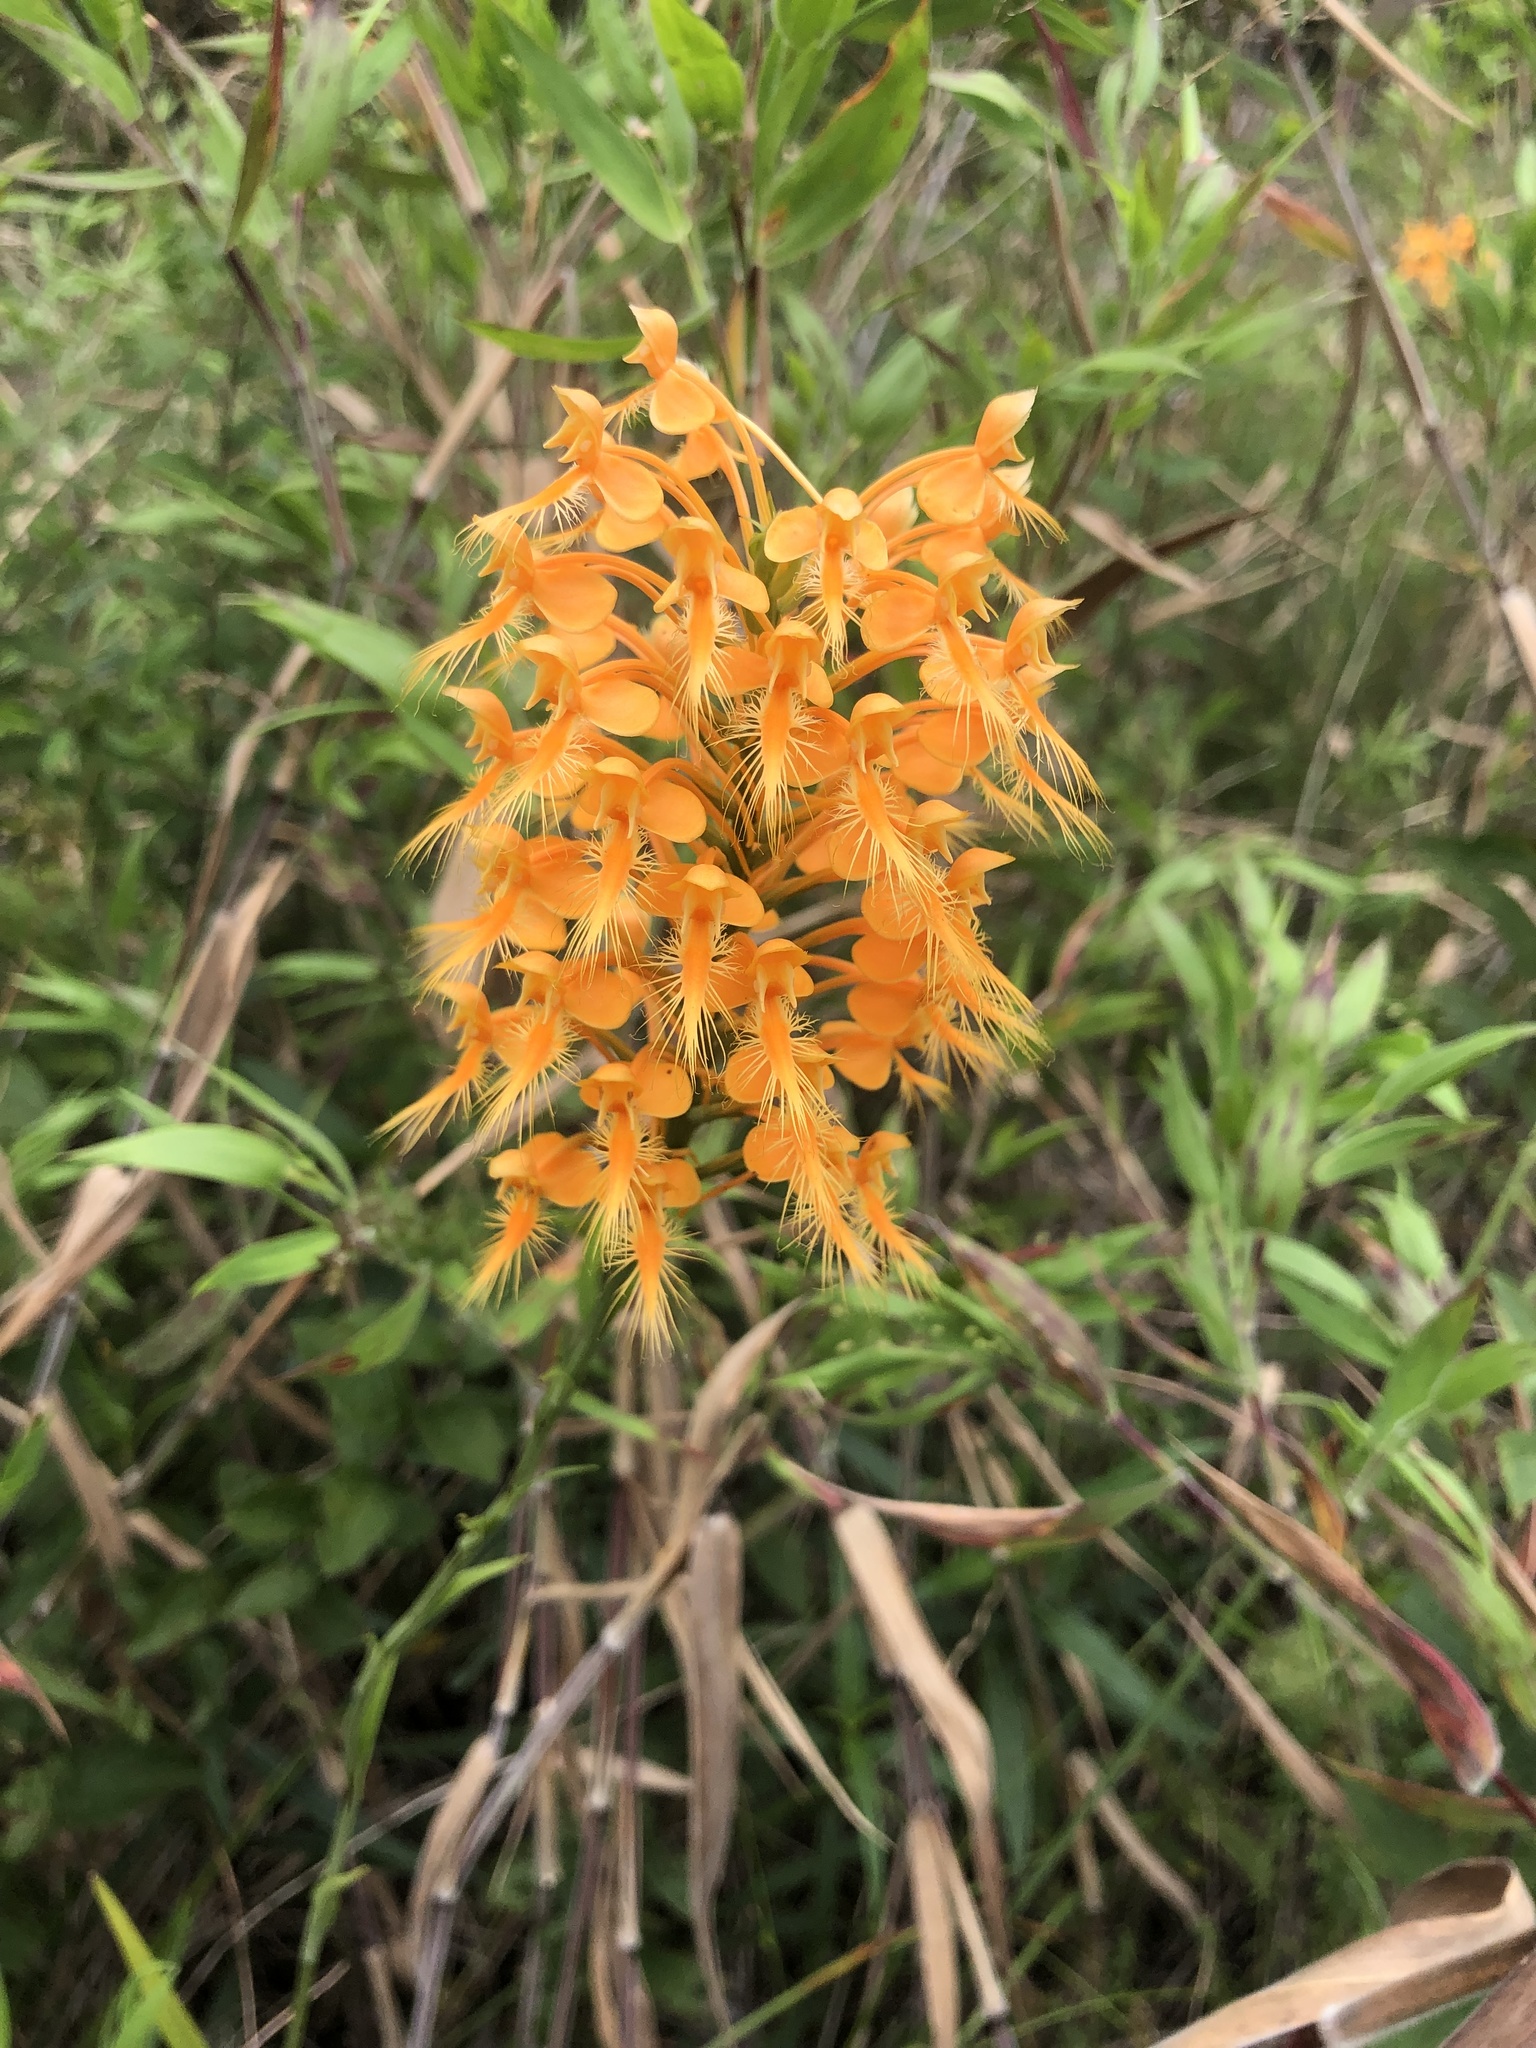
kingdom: Plantae
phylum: Tracheophyta
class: Liliopsida
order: Asparagales
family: Orchidaceae
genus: Platanthera
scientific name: Platanthera ciliaris
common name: Yellow fringed orchid
